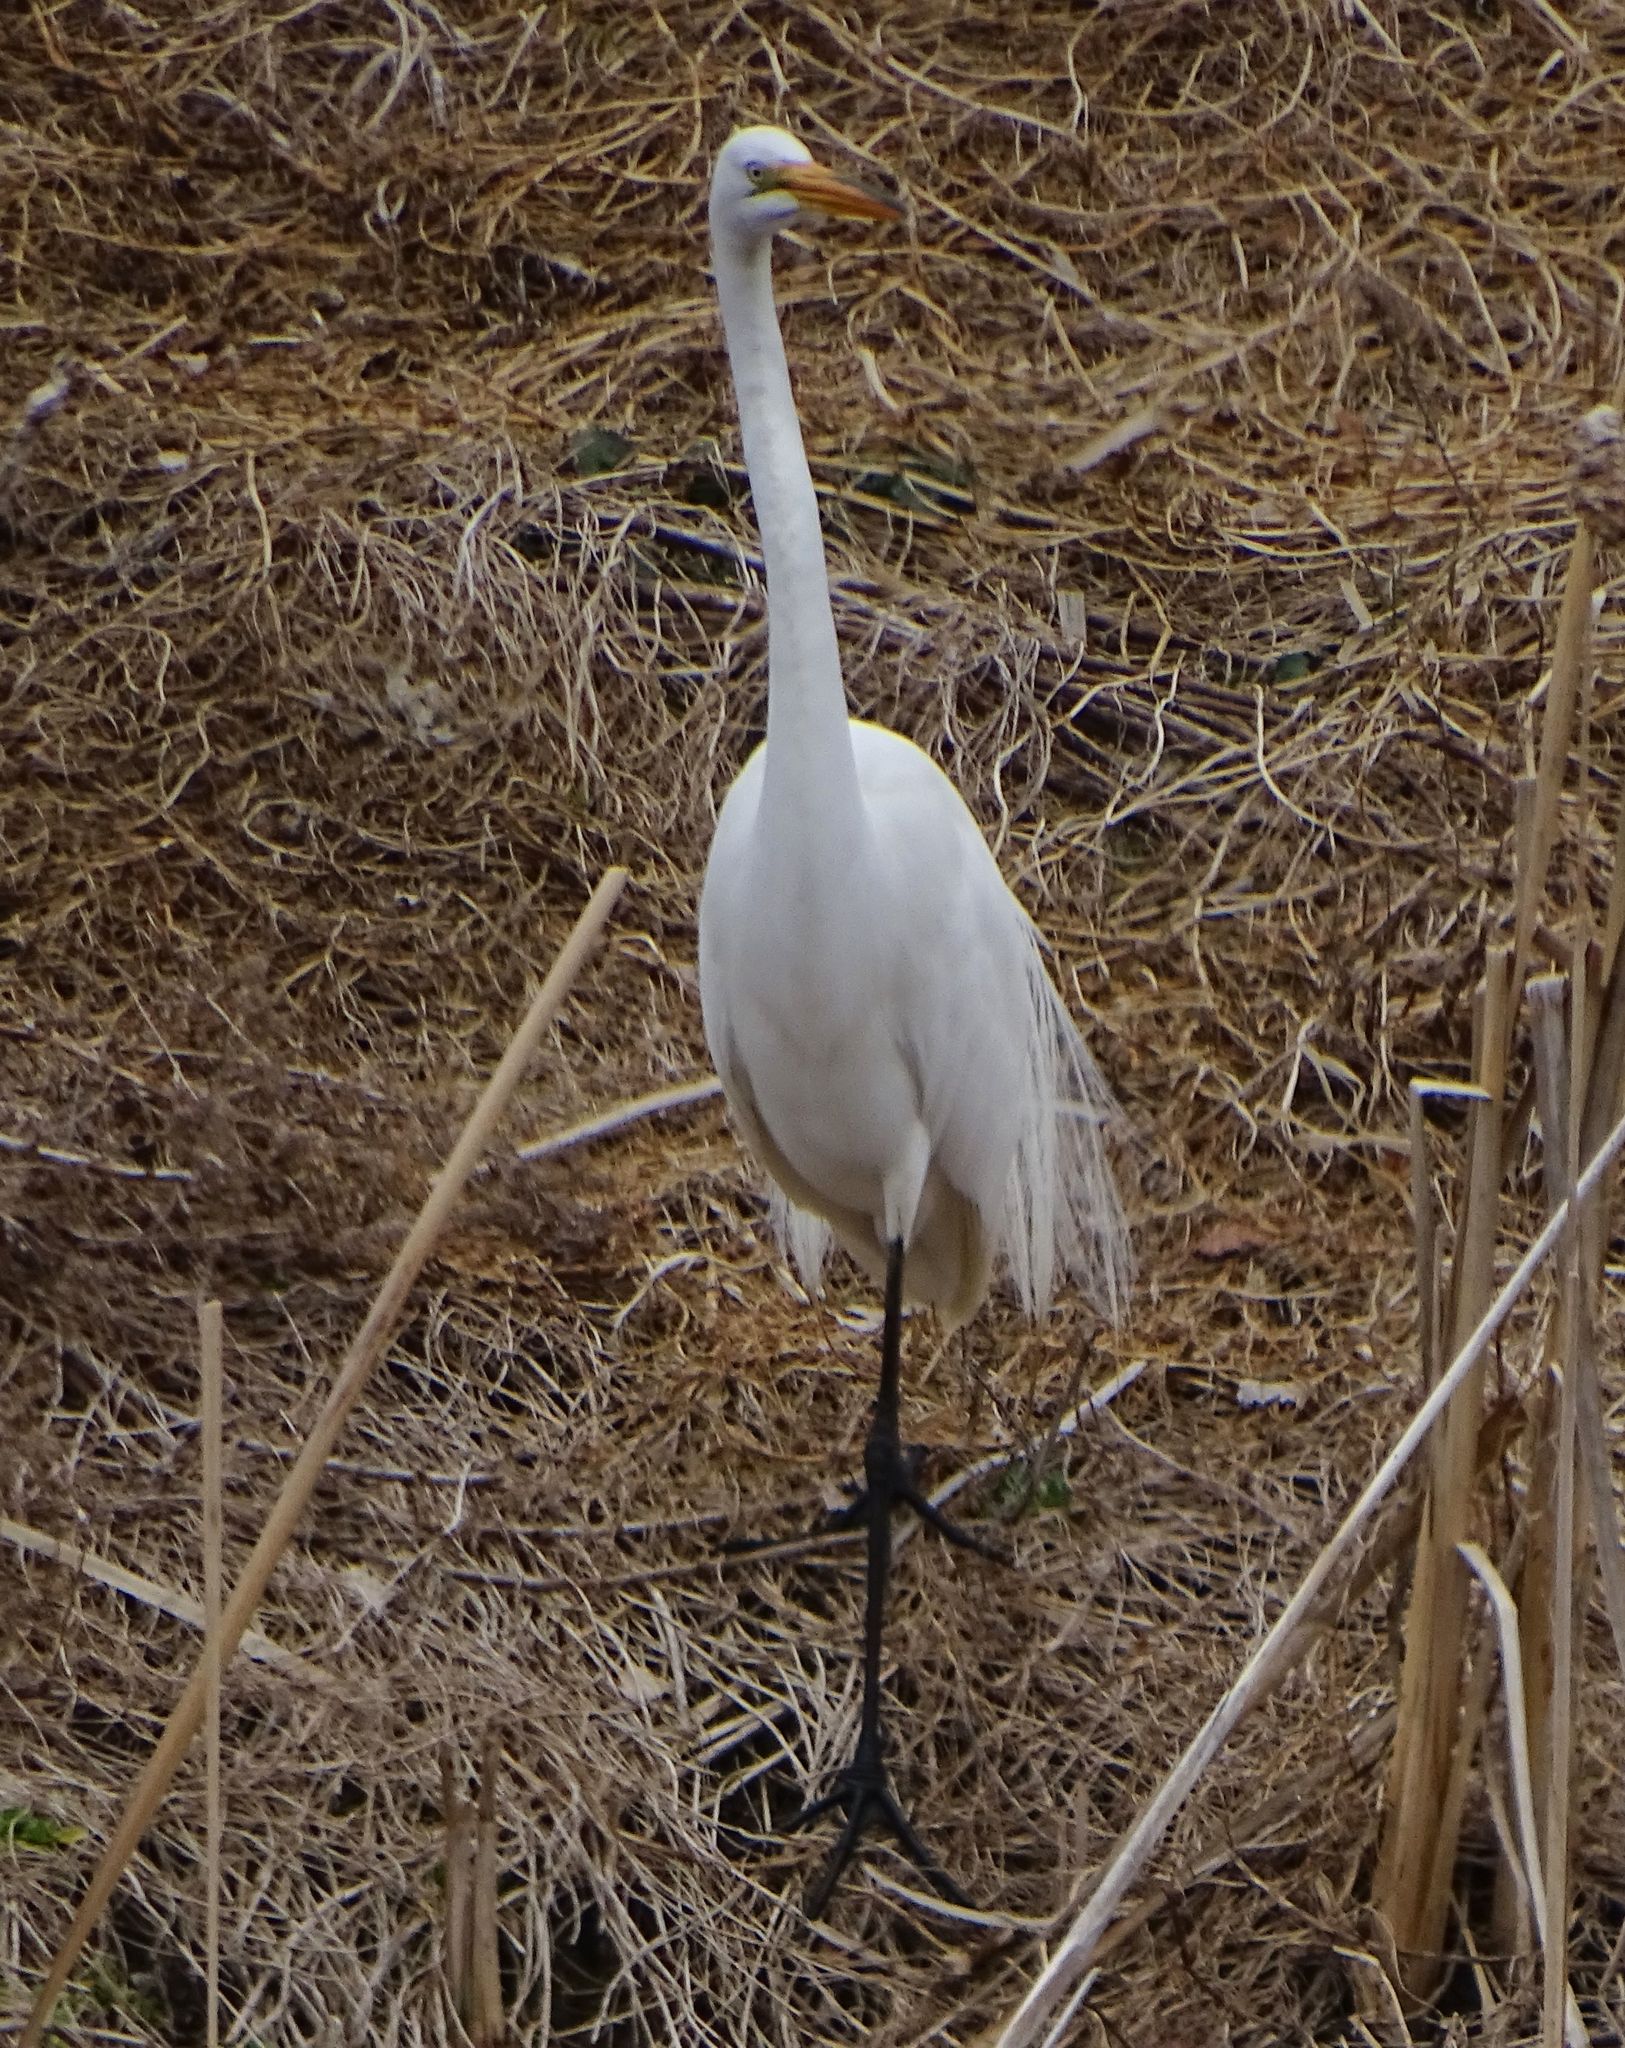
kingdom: Animalia
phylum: Chordata
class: Aves
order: Pelecaniformes
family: Ardeidae
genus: Ardea
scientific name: Ardea alba
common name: Great egret
